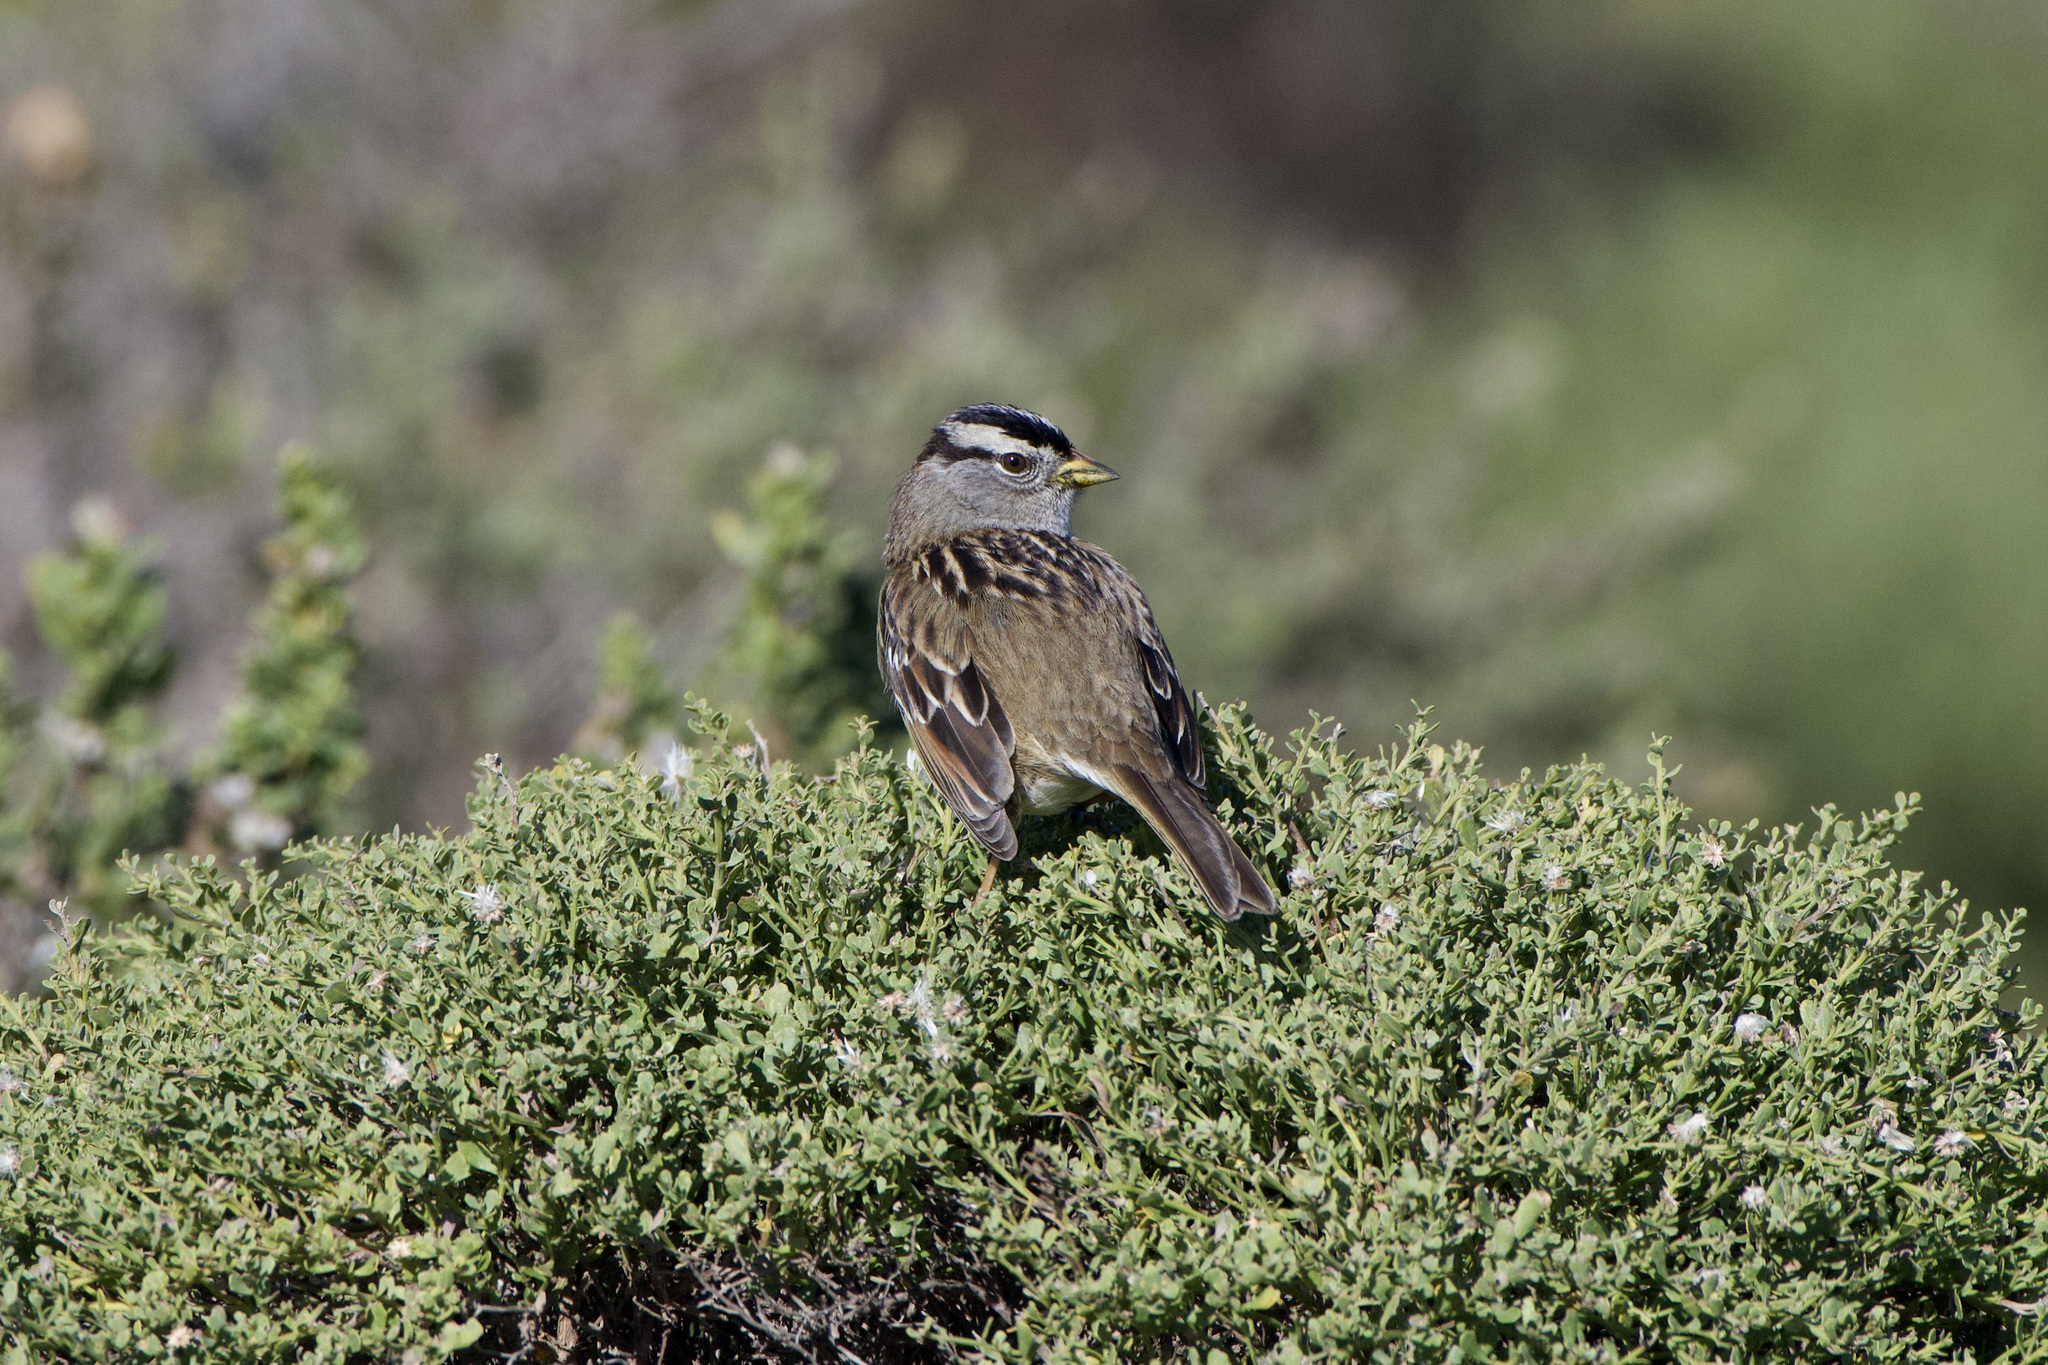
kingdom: Animalia
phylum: Chordata
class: Aves
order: Passeriformes
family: Passerellidae
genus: Zonotrichia
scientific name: Zonotrichia leucophrys
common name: White-crowned sparrow
